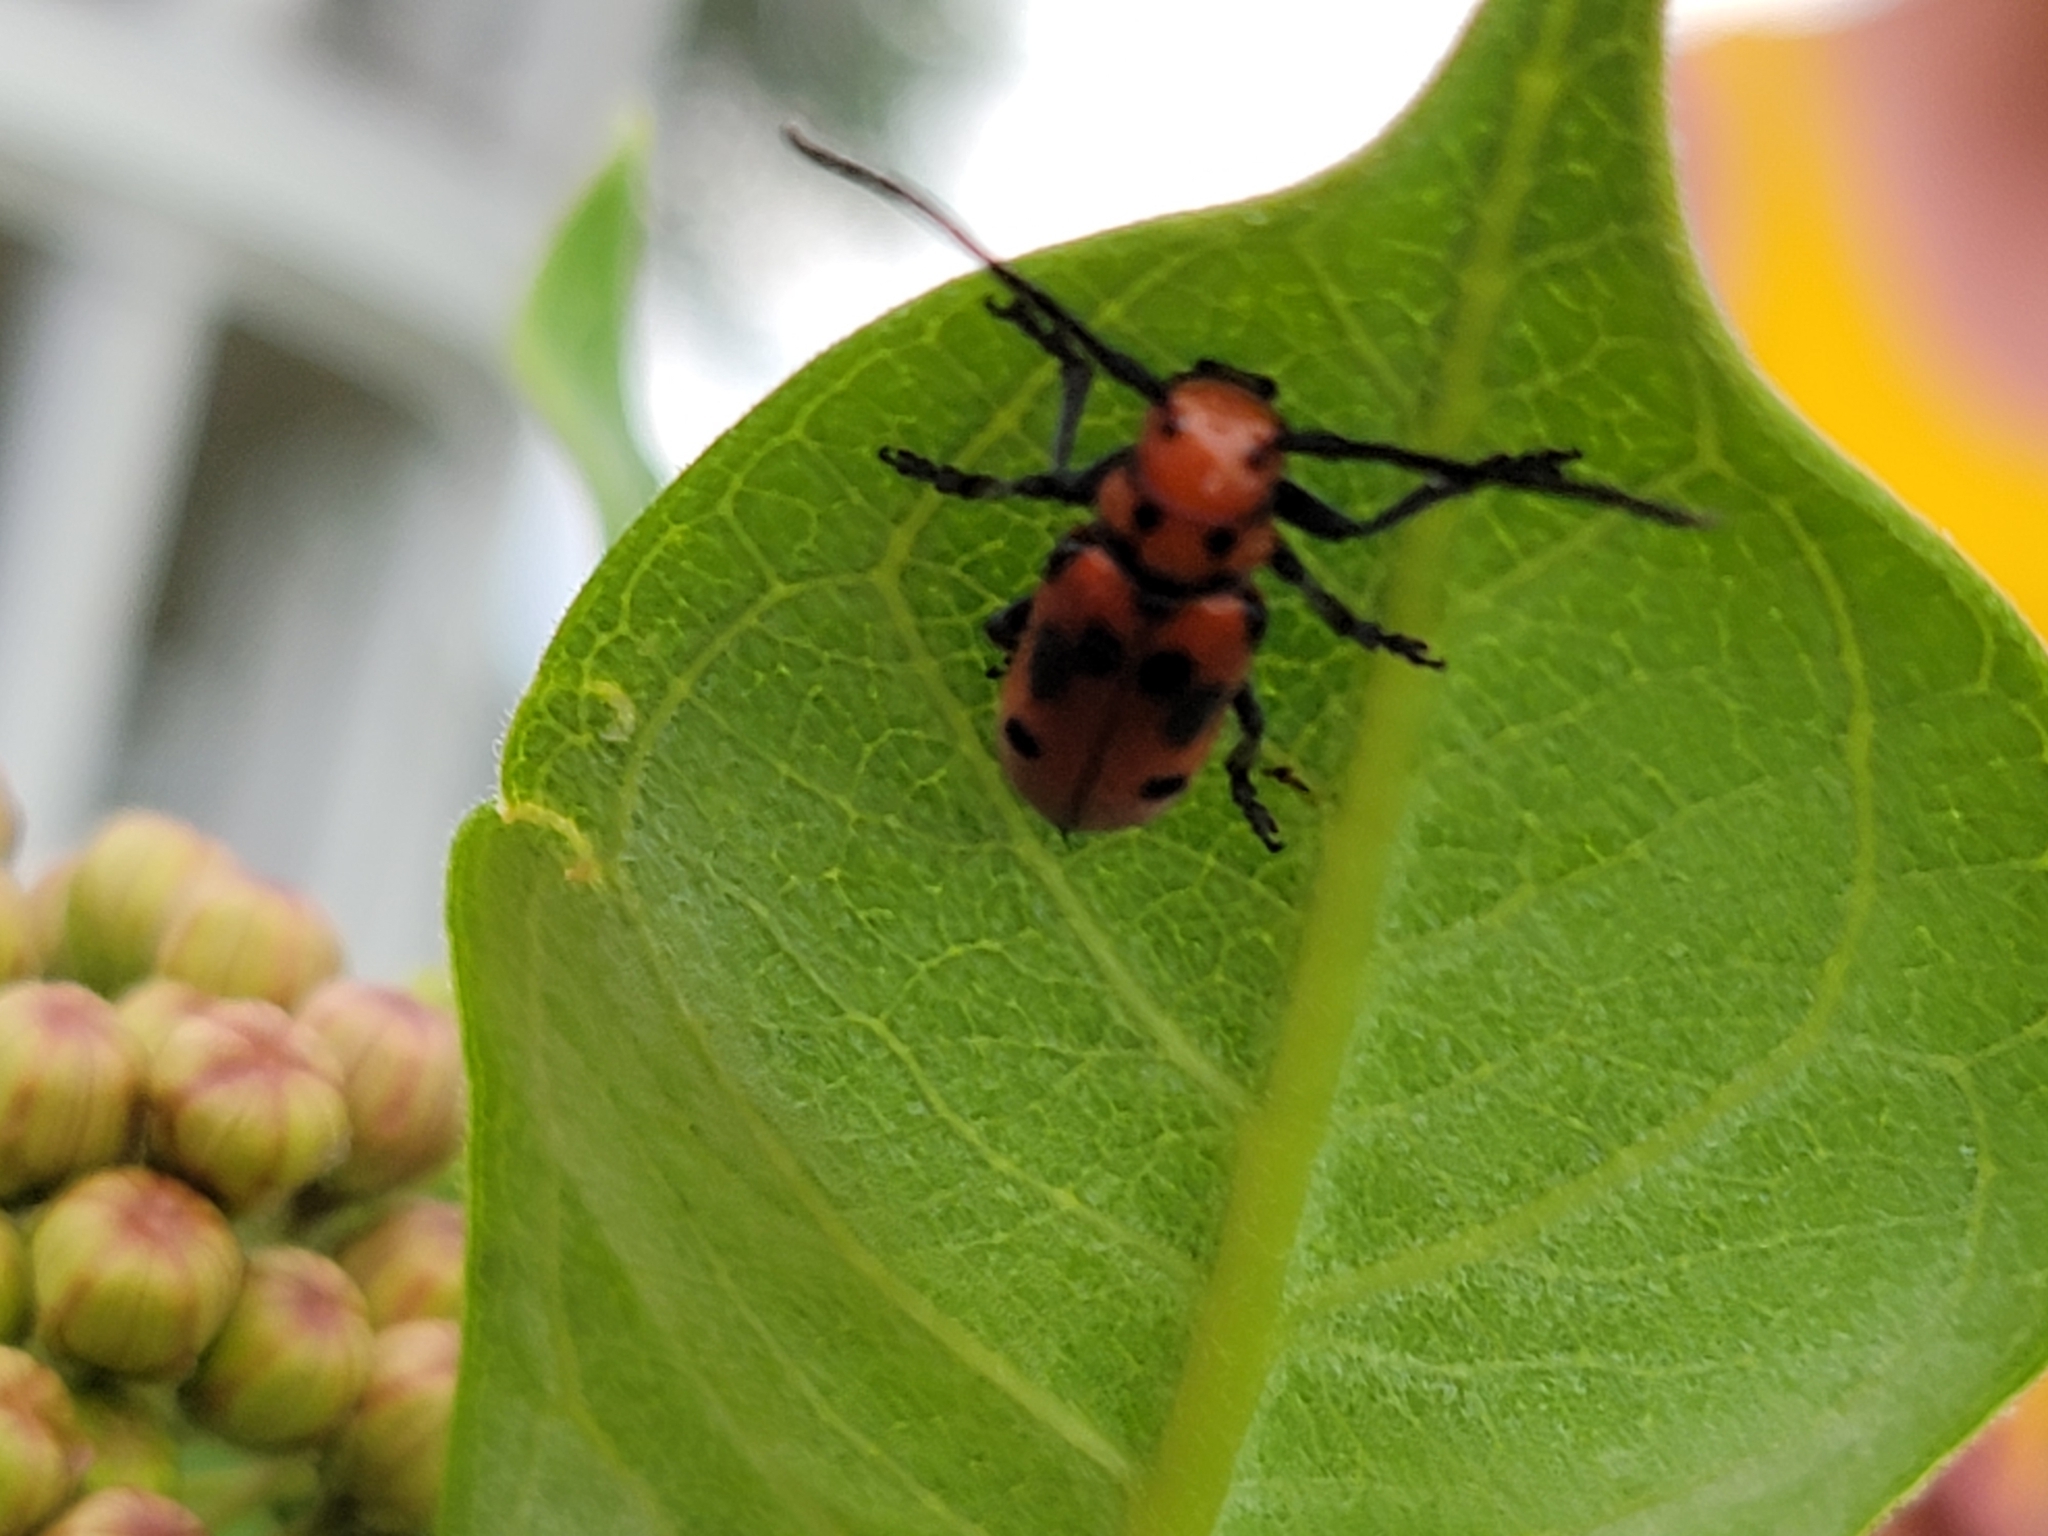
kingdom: Animalia
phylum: Arthropoda
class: Insecta
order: Coleoptera
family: Cerambycidae
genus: Tetraopes
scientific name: Tetraopes tetrophthalmus
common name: Red milkweed beetle
